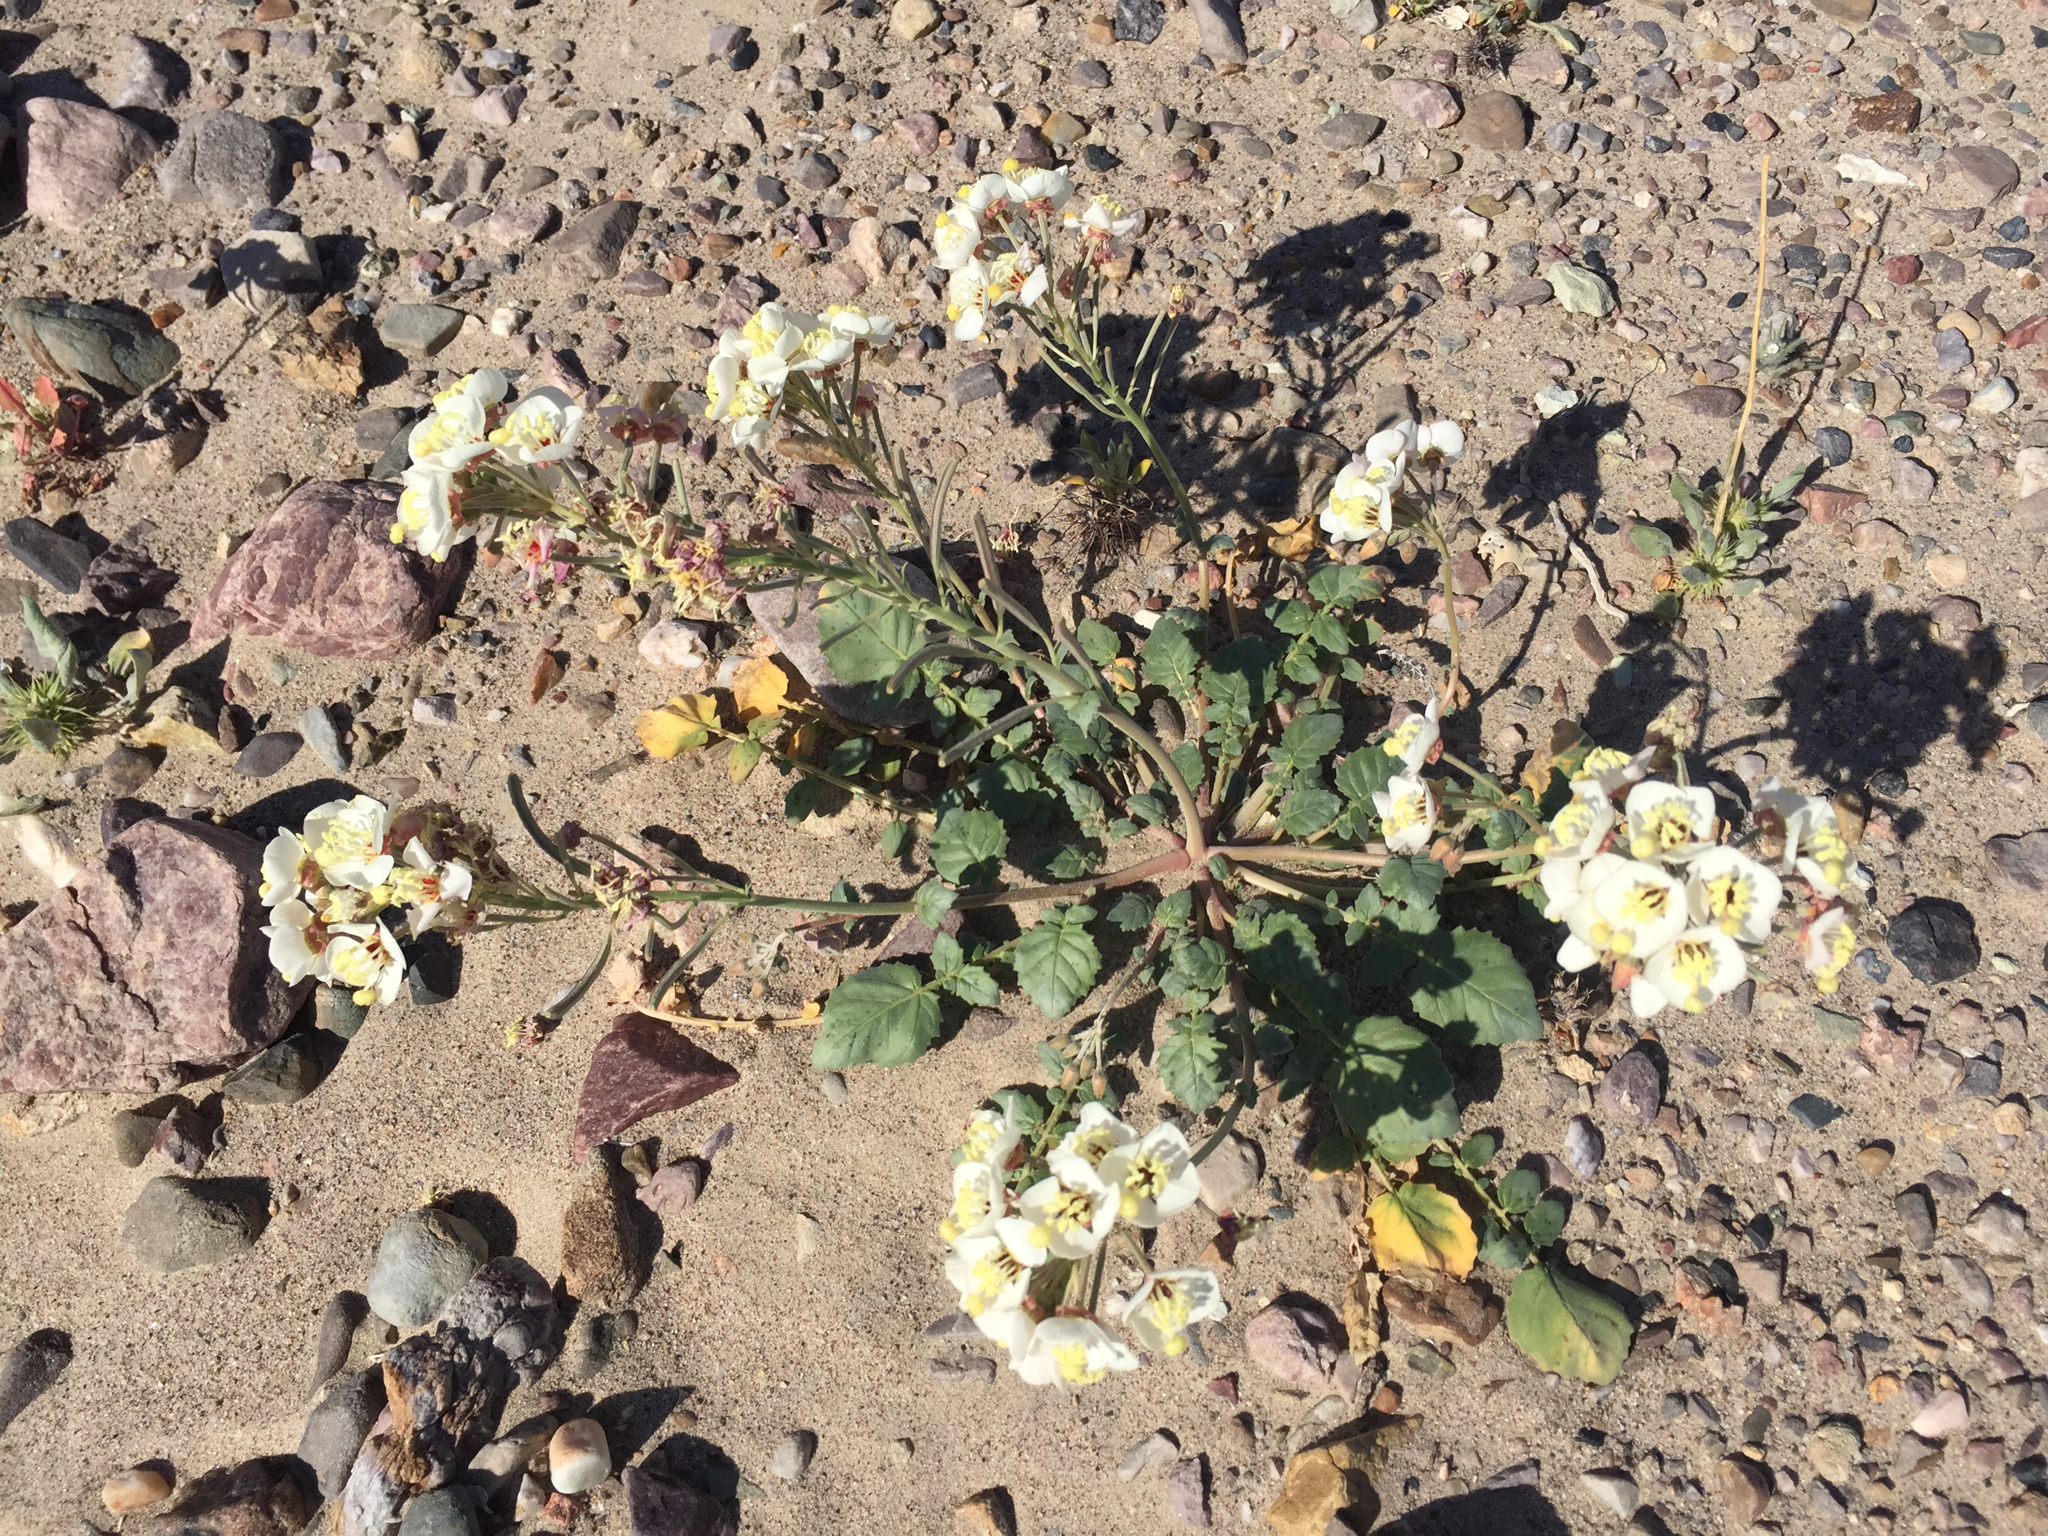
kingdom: Plantae
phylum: Tracheophyta
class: Magnoliopsida
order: Myrtales
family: Onagraceae
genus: Chylismia
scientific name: Chylismia claviformis
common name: Browneyes
